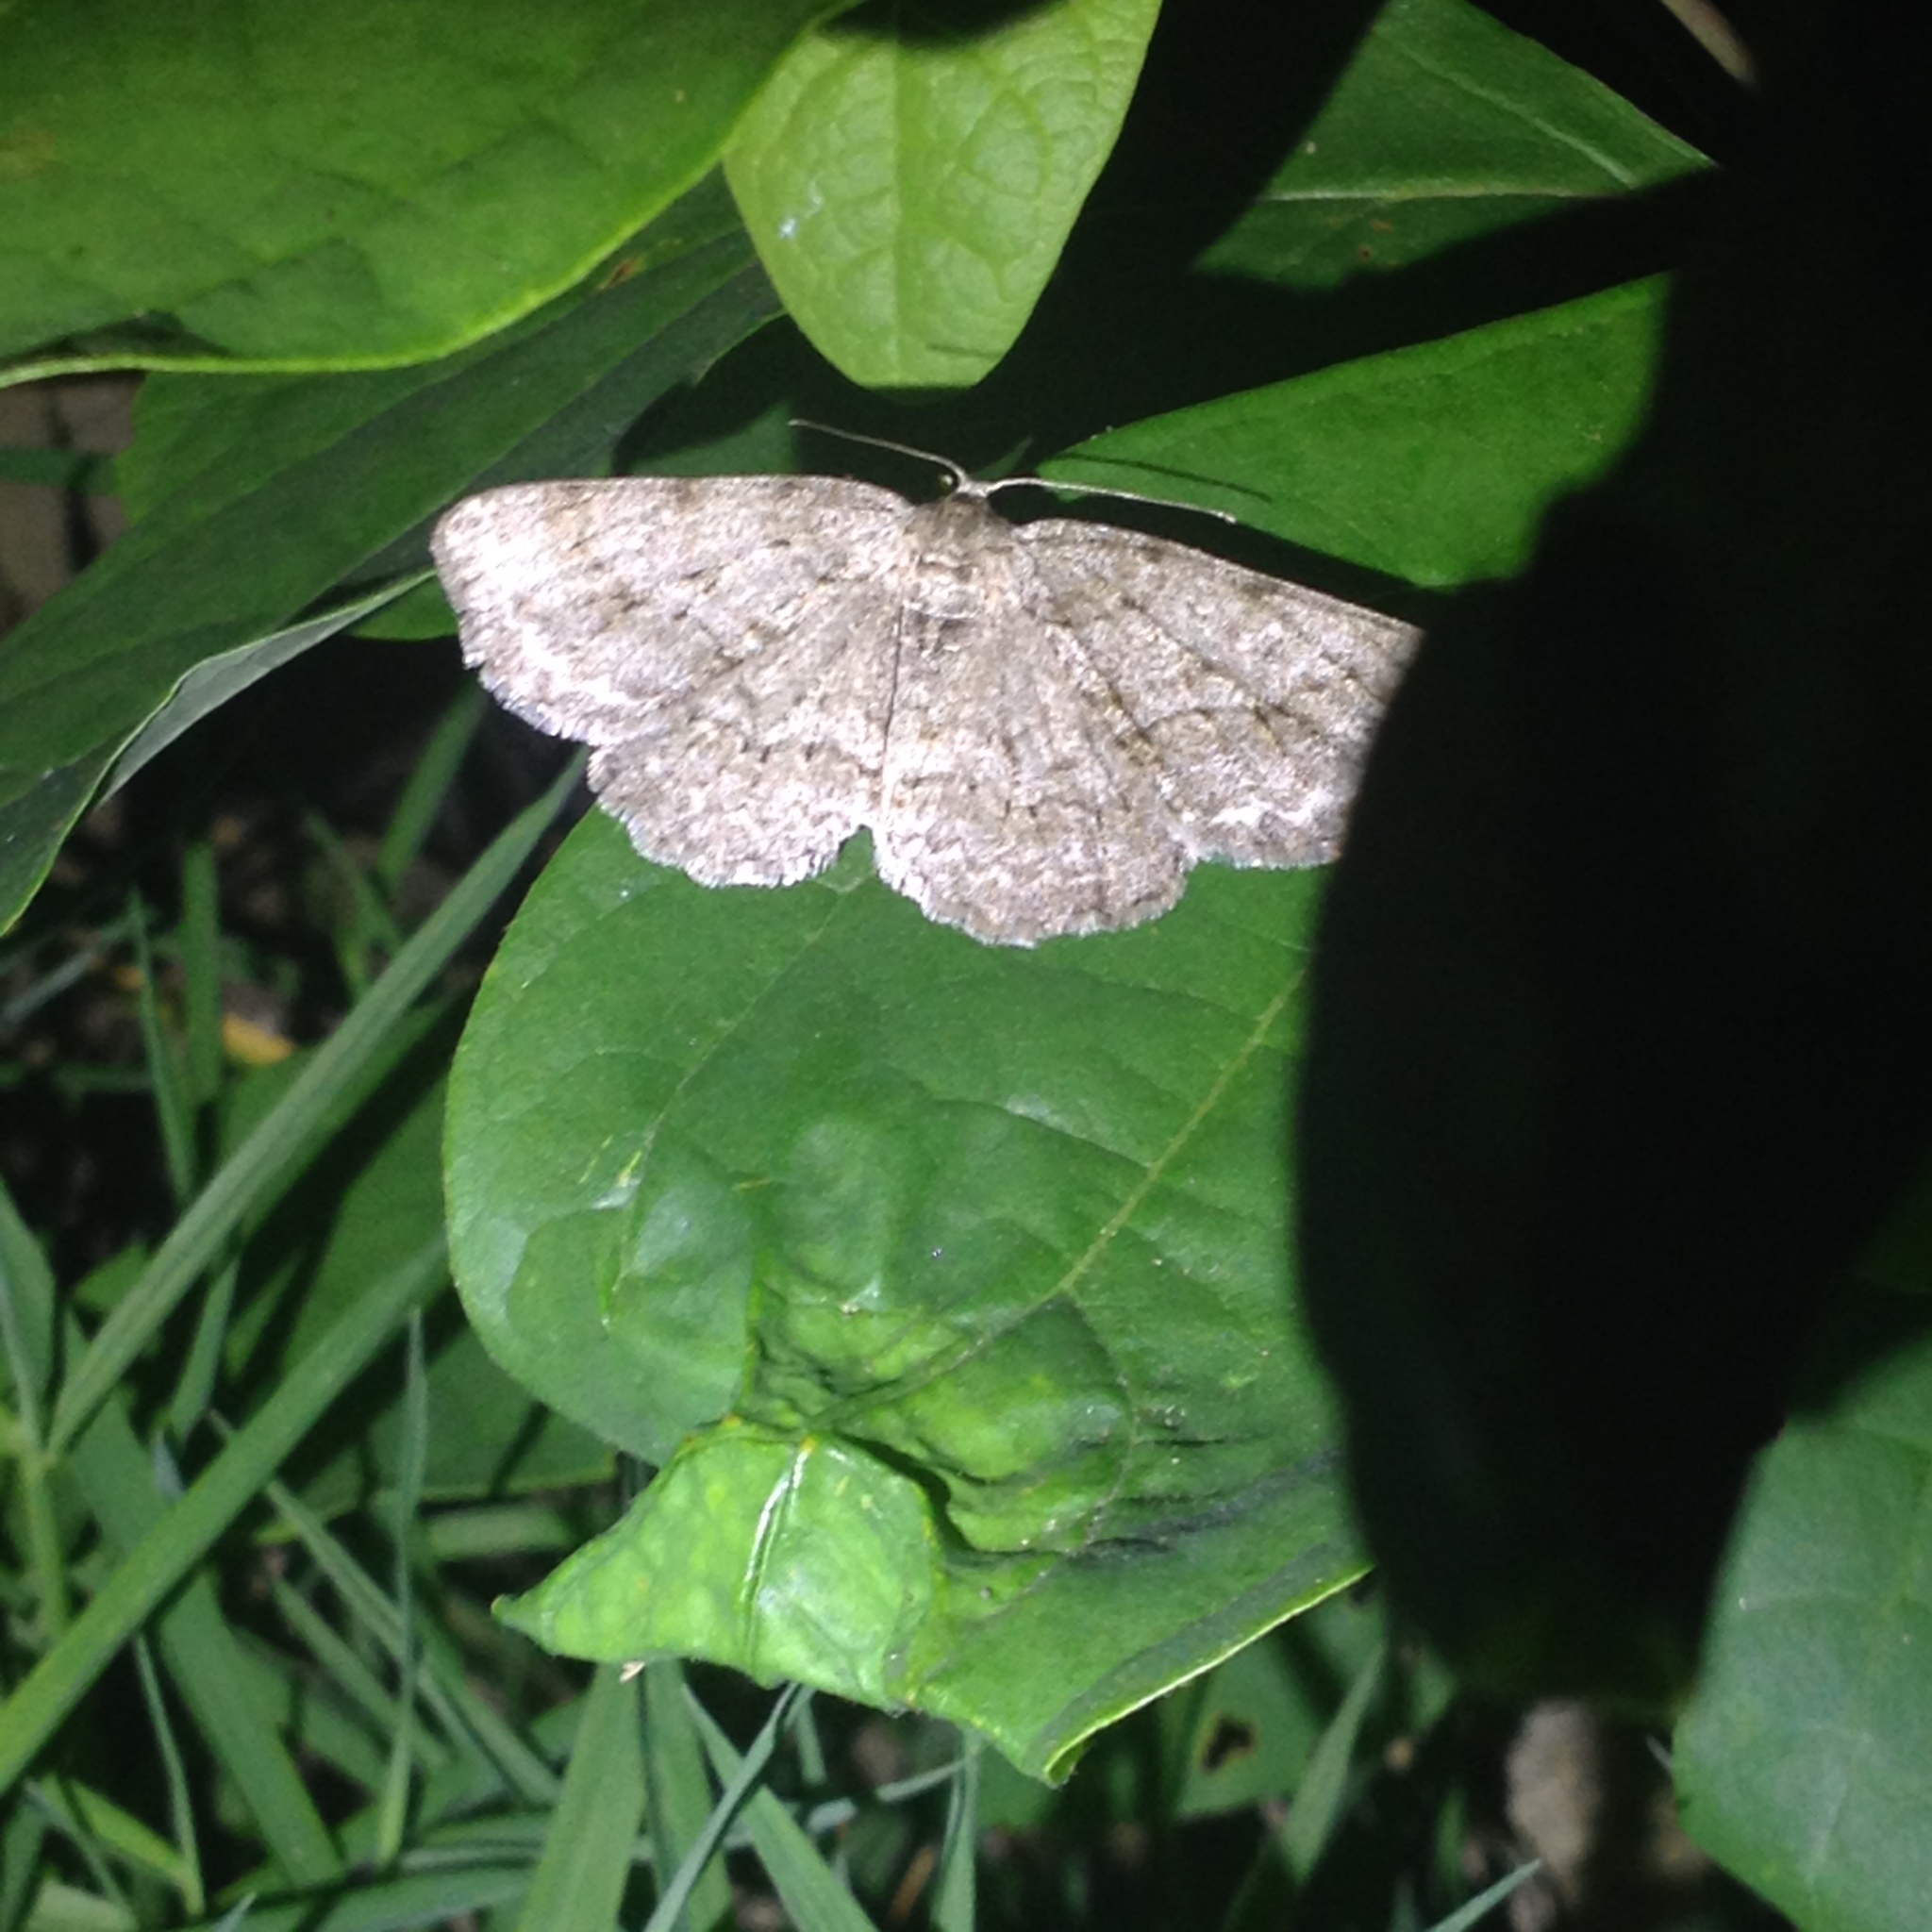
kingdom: Animalia
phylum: Arthropoda
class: Insecta
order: Lepidoptera
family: Geometridae
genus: Ectropis
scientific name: Ectropis crepuscularia
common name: Engrailed
